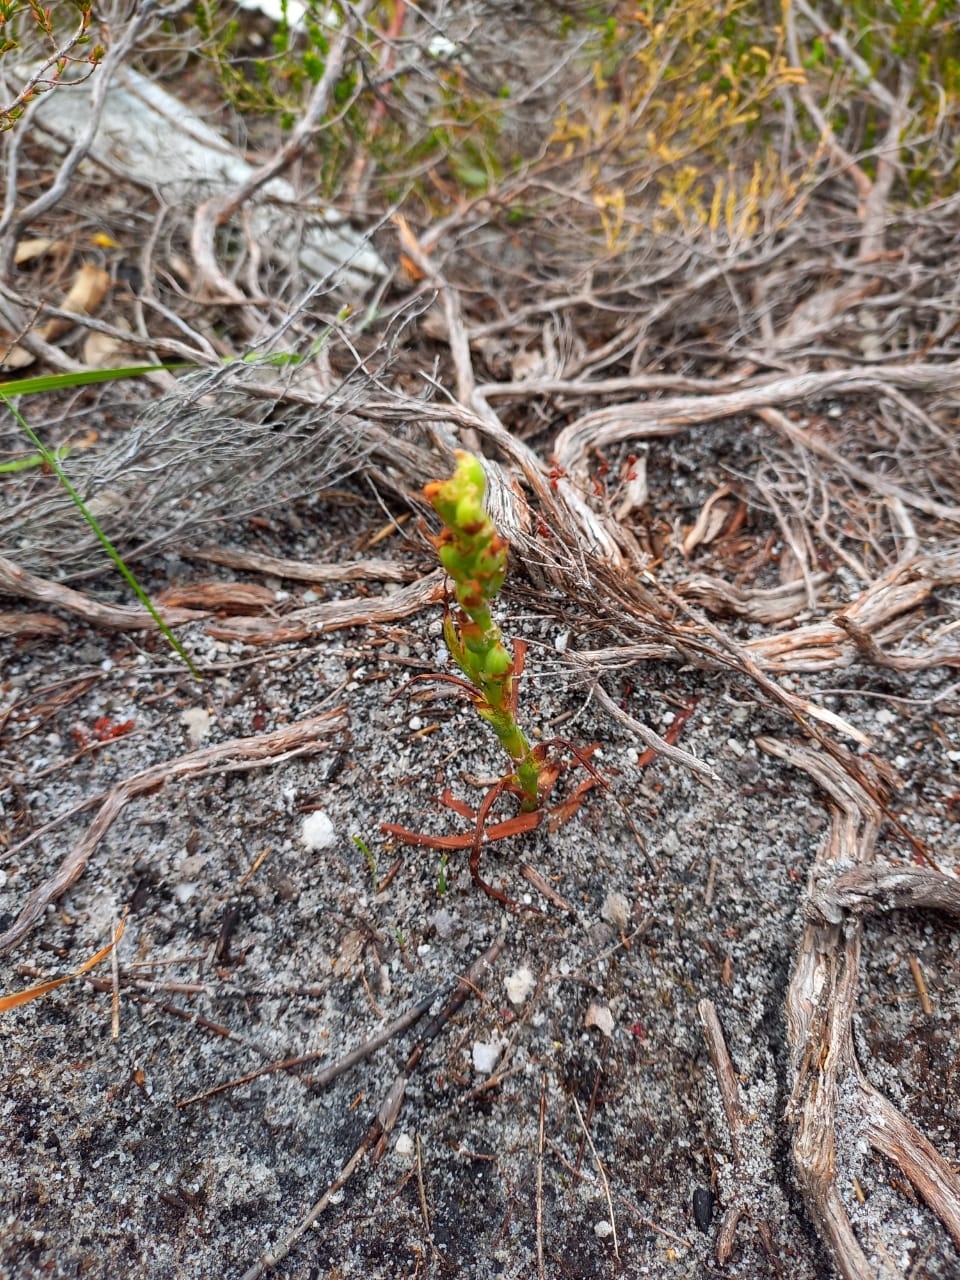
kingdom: Plantae
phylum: Tracheophyta
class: Liliopsida
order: Asparagales
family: Orchidaceae
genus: Disa
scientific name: Disa bracteata
